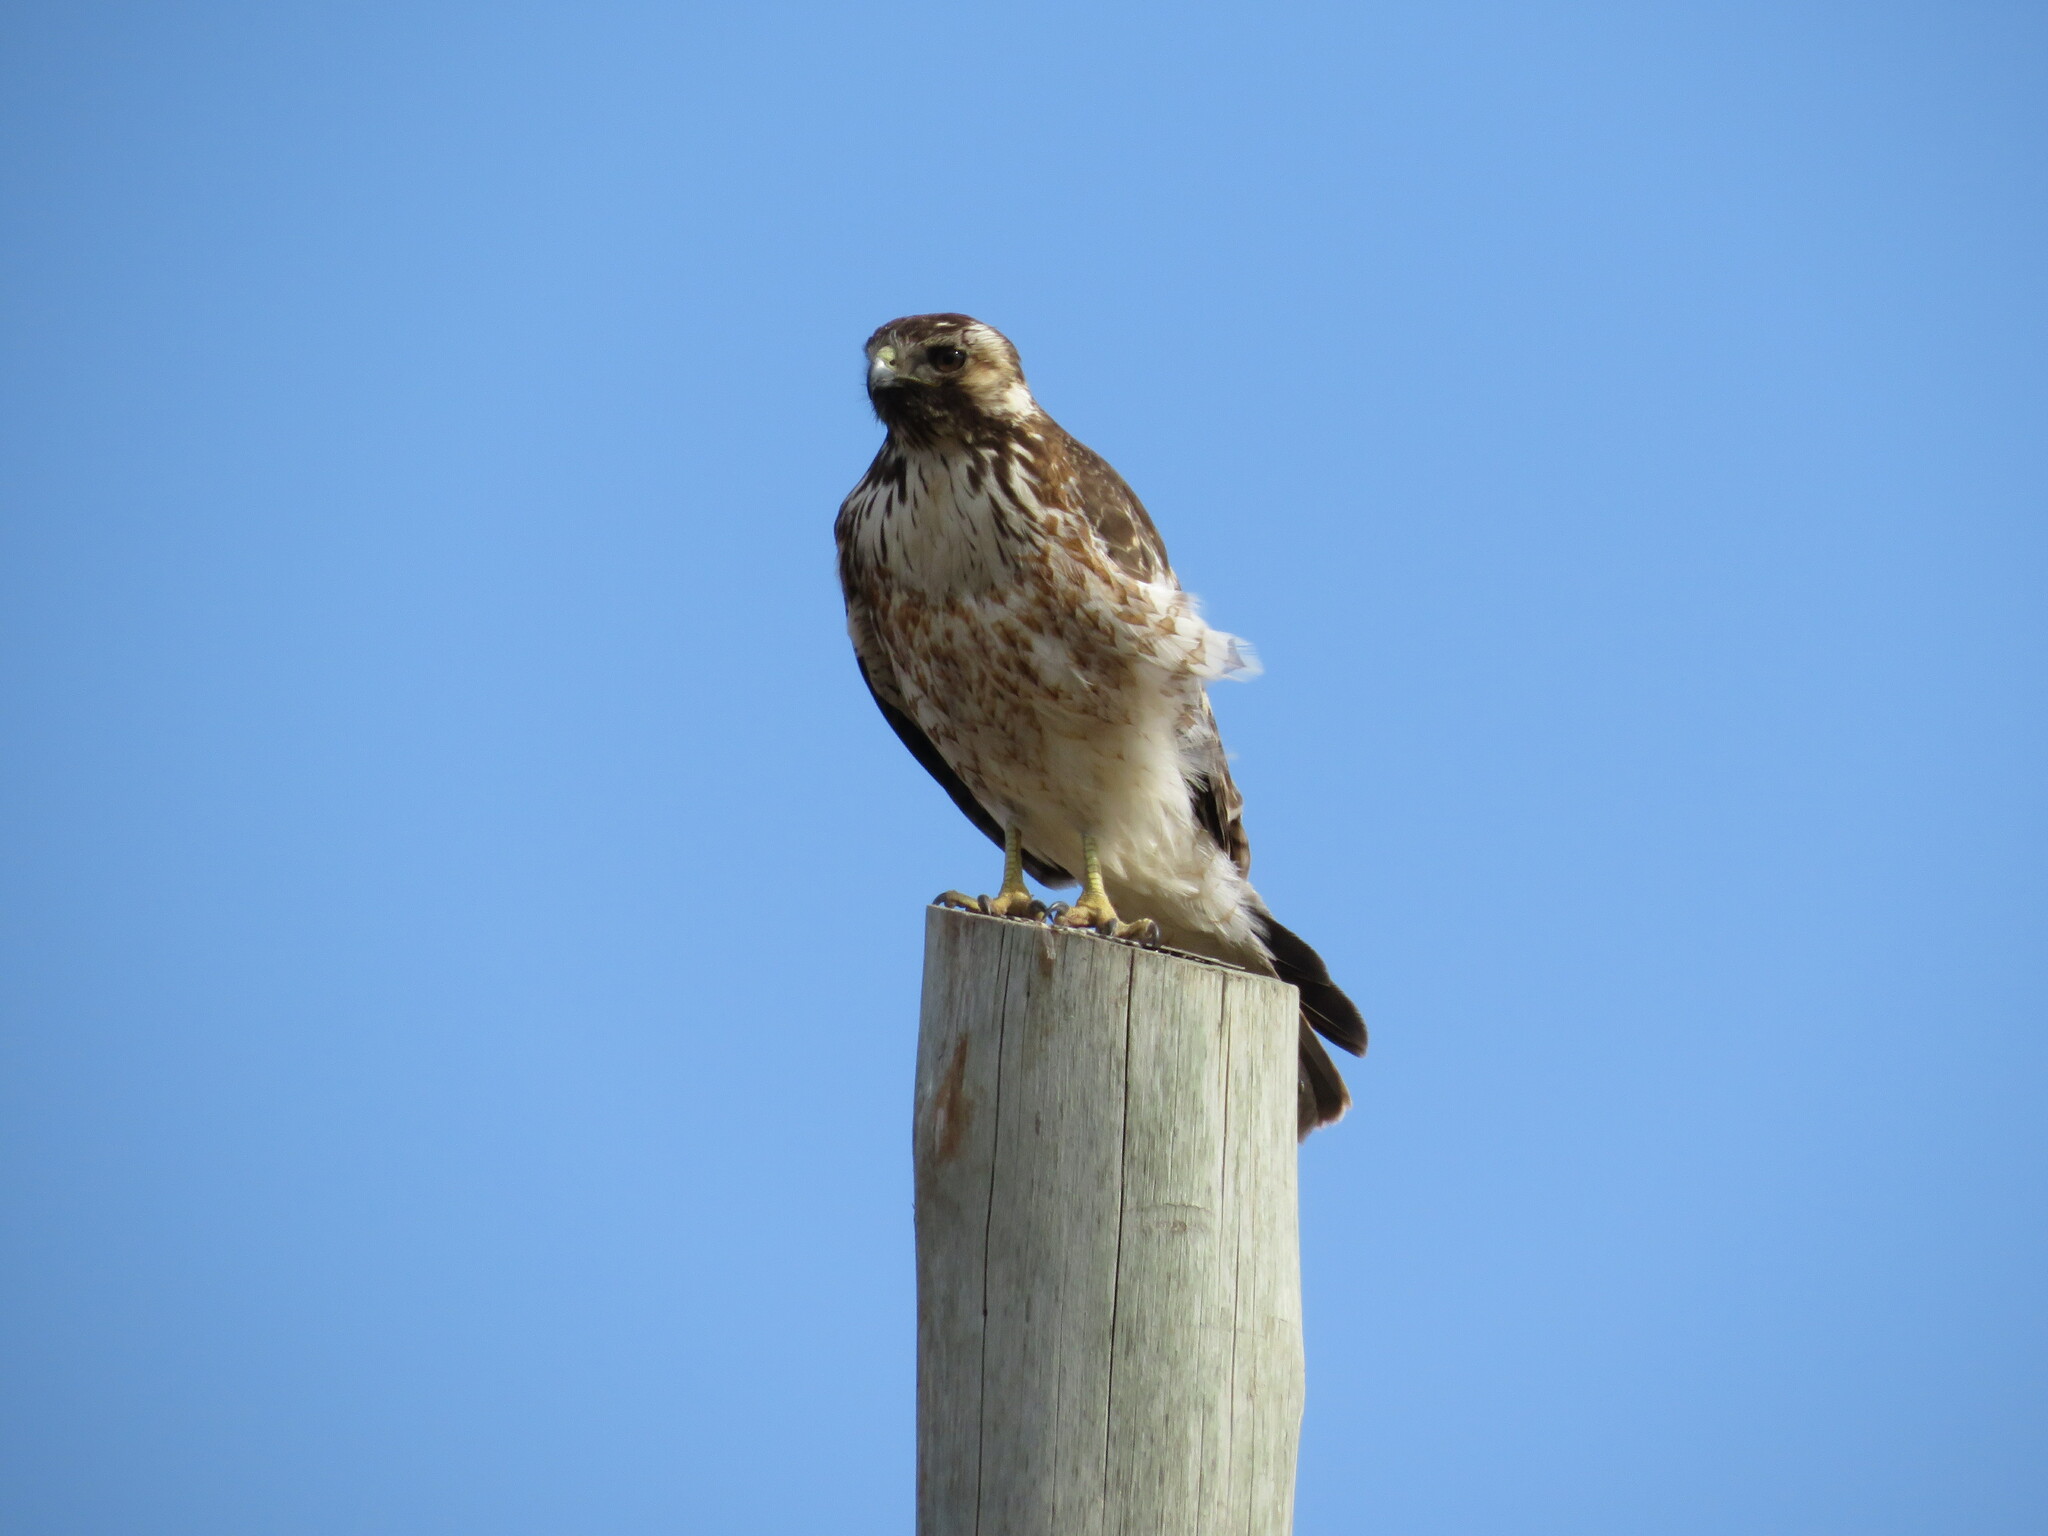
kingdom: Animalia
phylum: Chordata
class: Aves
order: Accipitriformes
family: Accipitridae
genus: Buteo
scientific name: Buteo polyosoma
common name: Variable hawk
